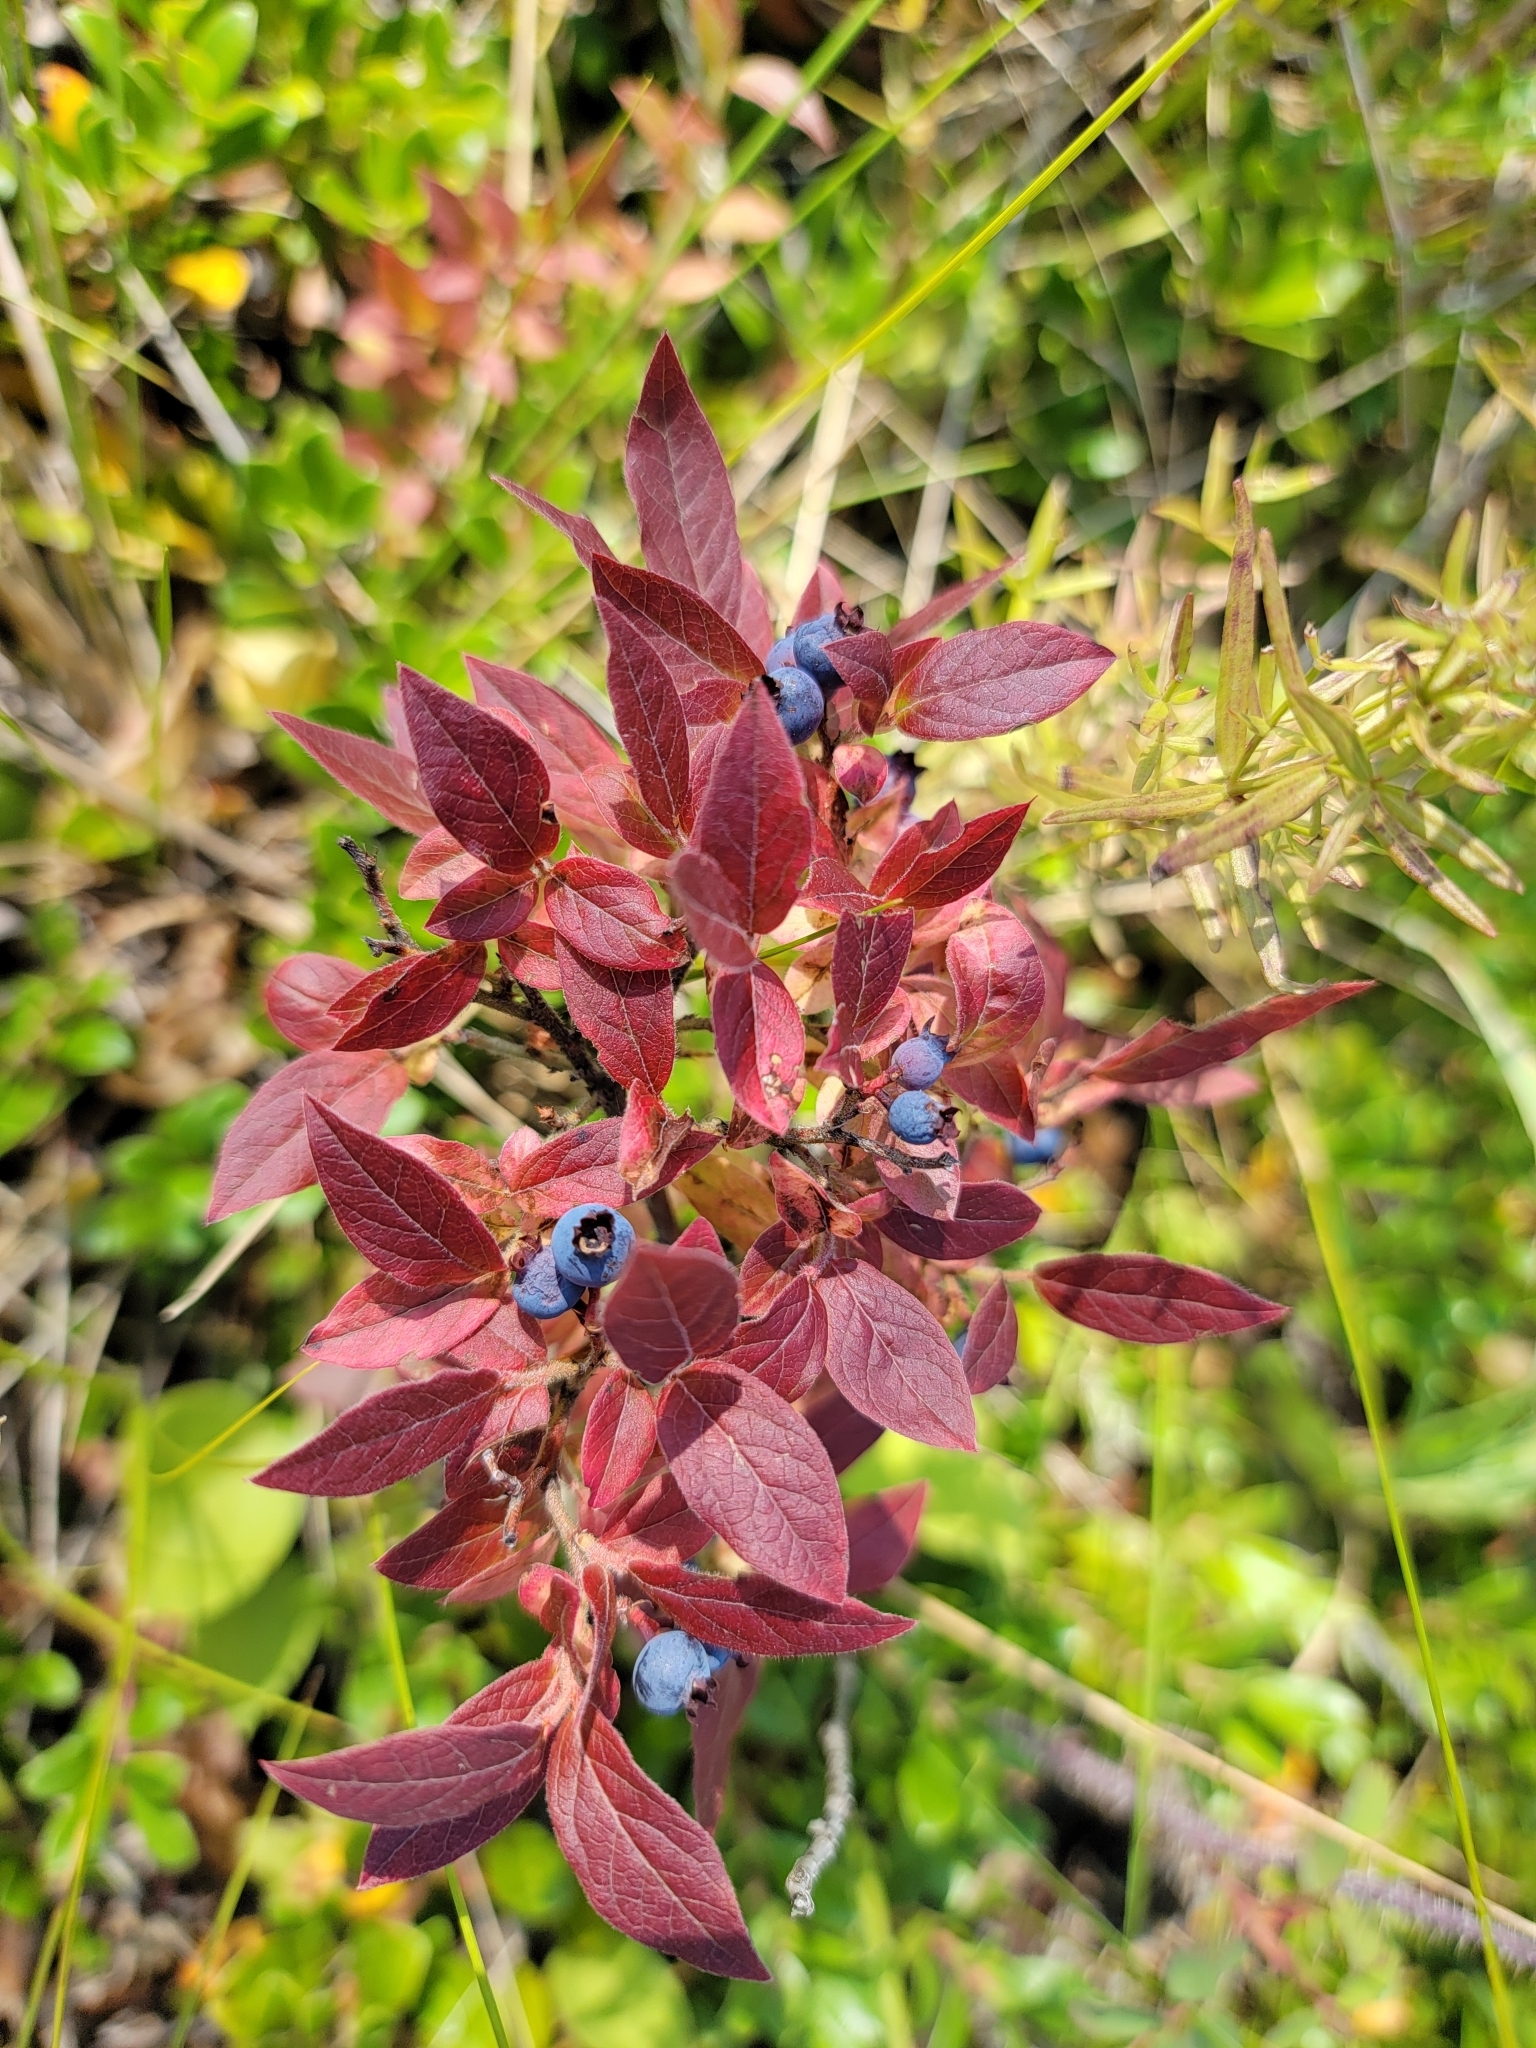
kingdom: Plantae
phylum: Tracheophyta
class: Magnoliopsida
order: Ericales
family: Ericaceae
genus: Vaccinium
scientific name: Vaccinium myrtilloides
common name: Canada blueberry
